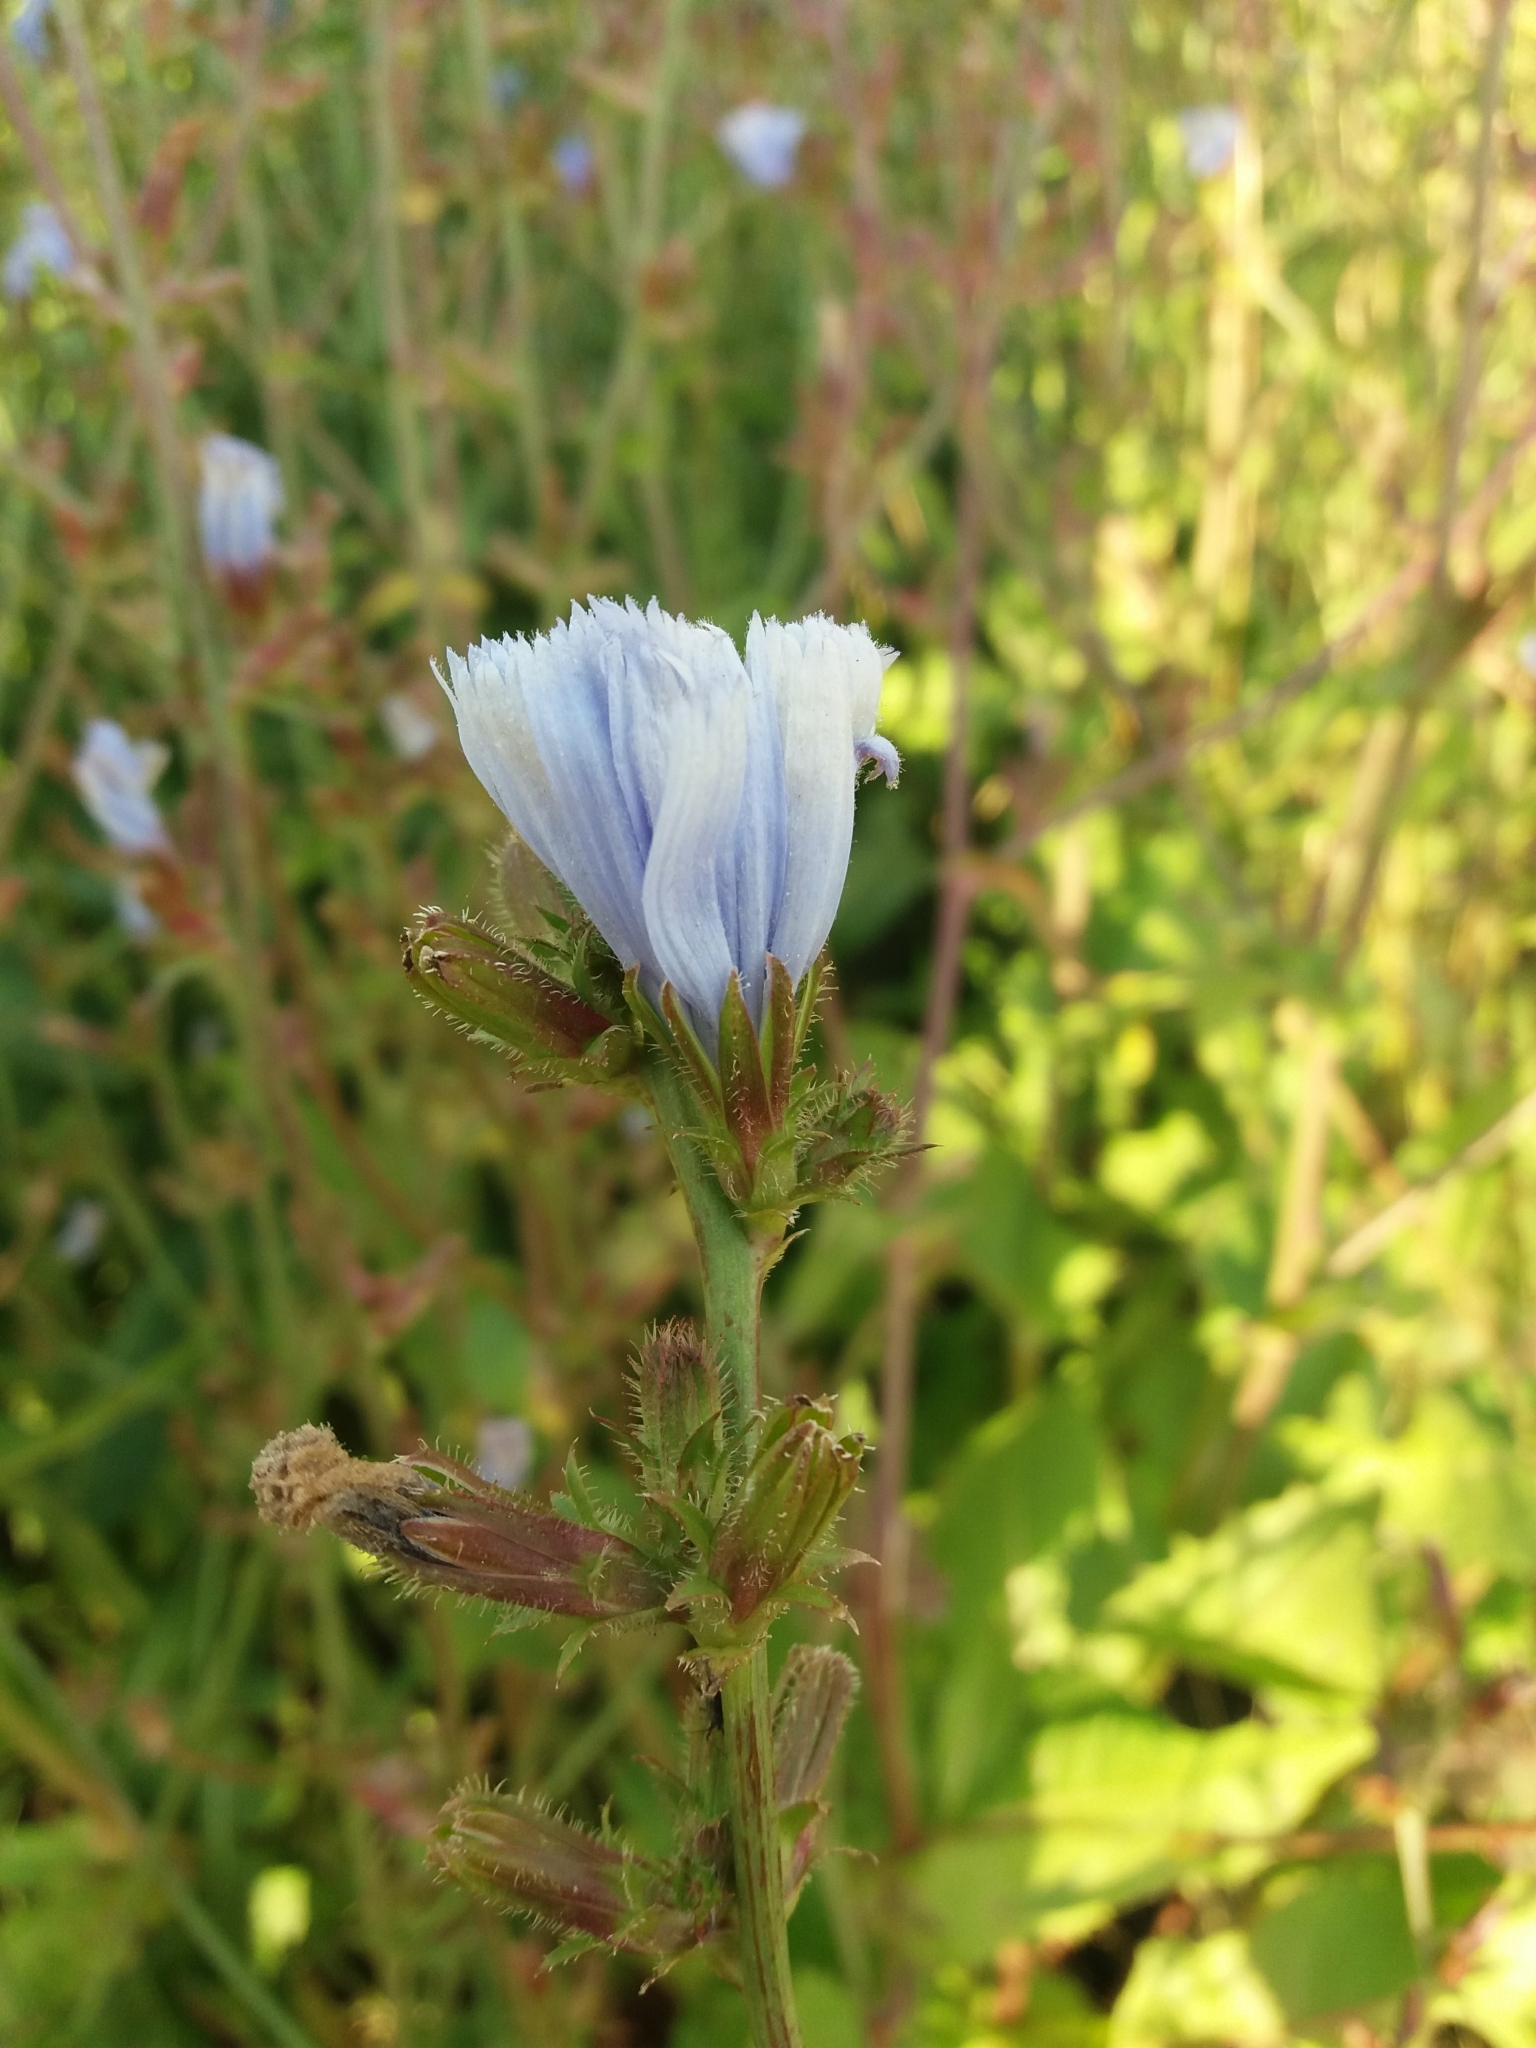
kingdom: Plantae
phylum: Tracheophyta
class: Magnoliopsida
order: Asterales
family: Asteraceae
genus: Cichorium
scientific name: Cichorium intybus
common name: Chicory
